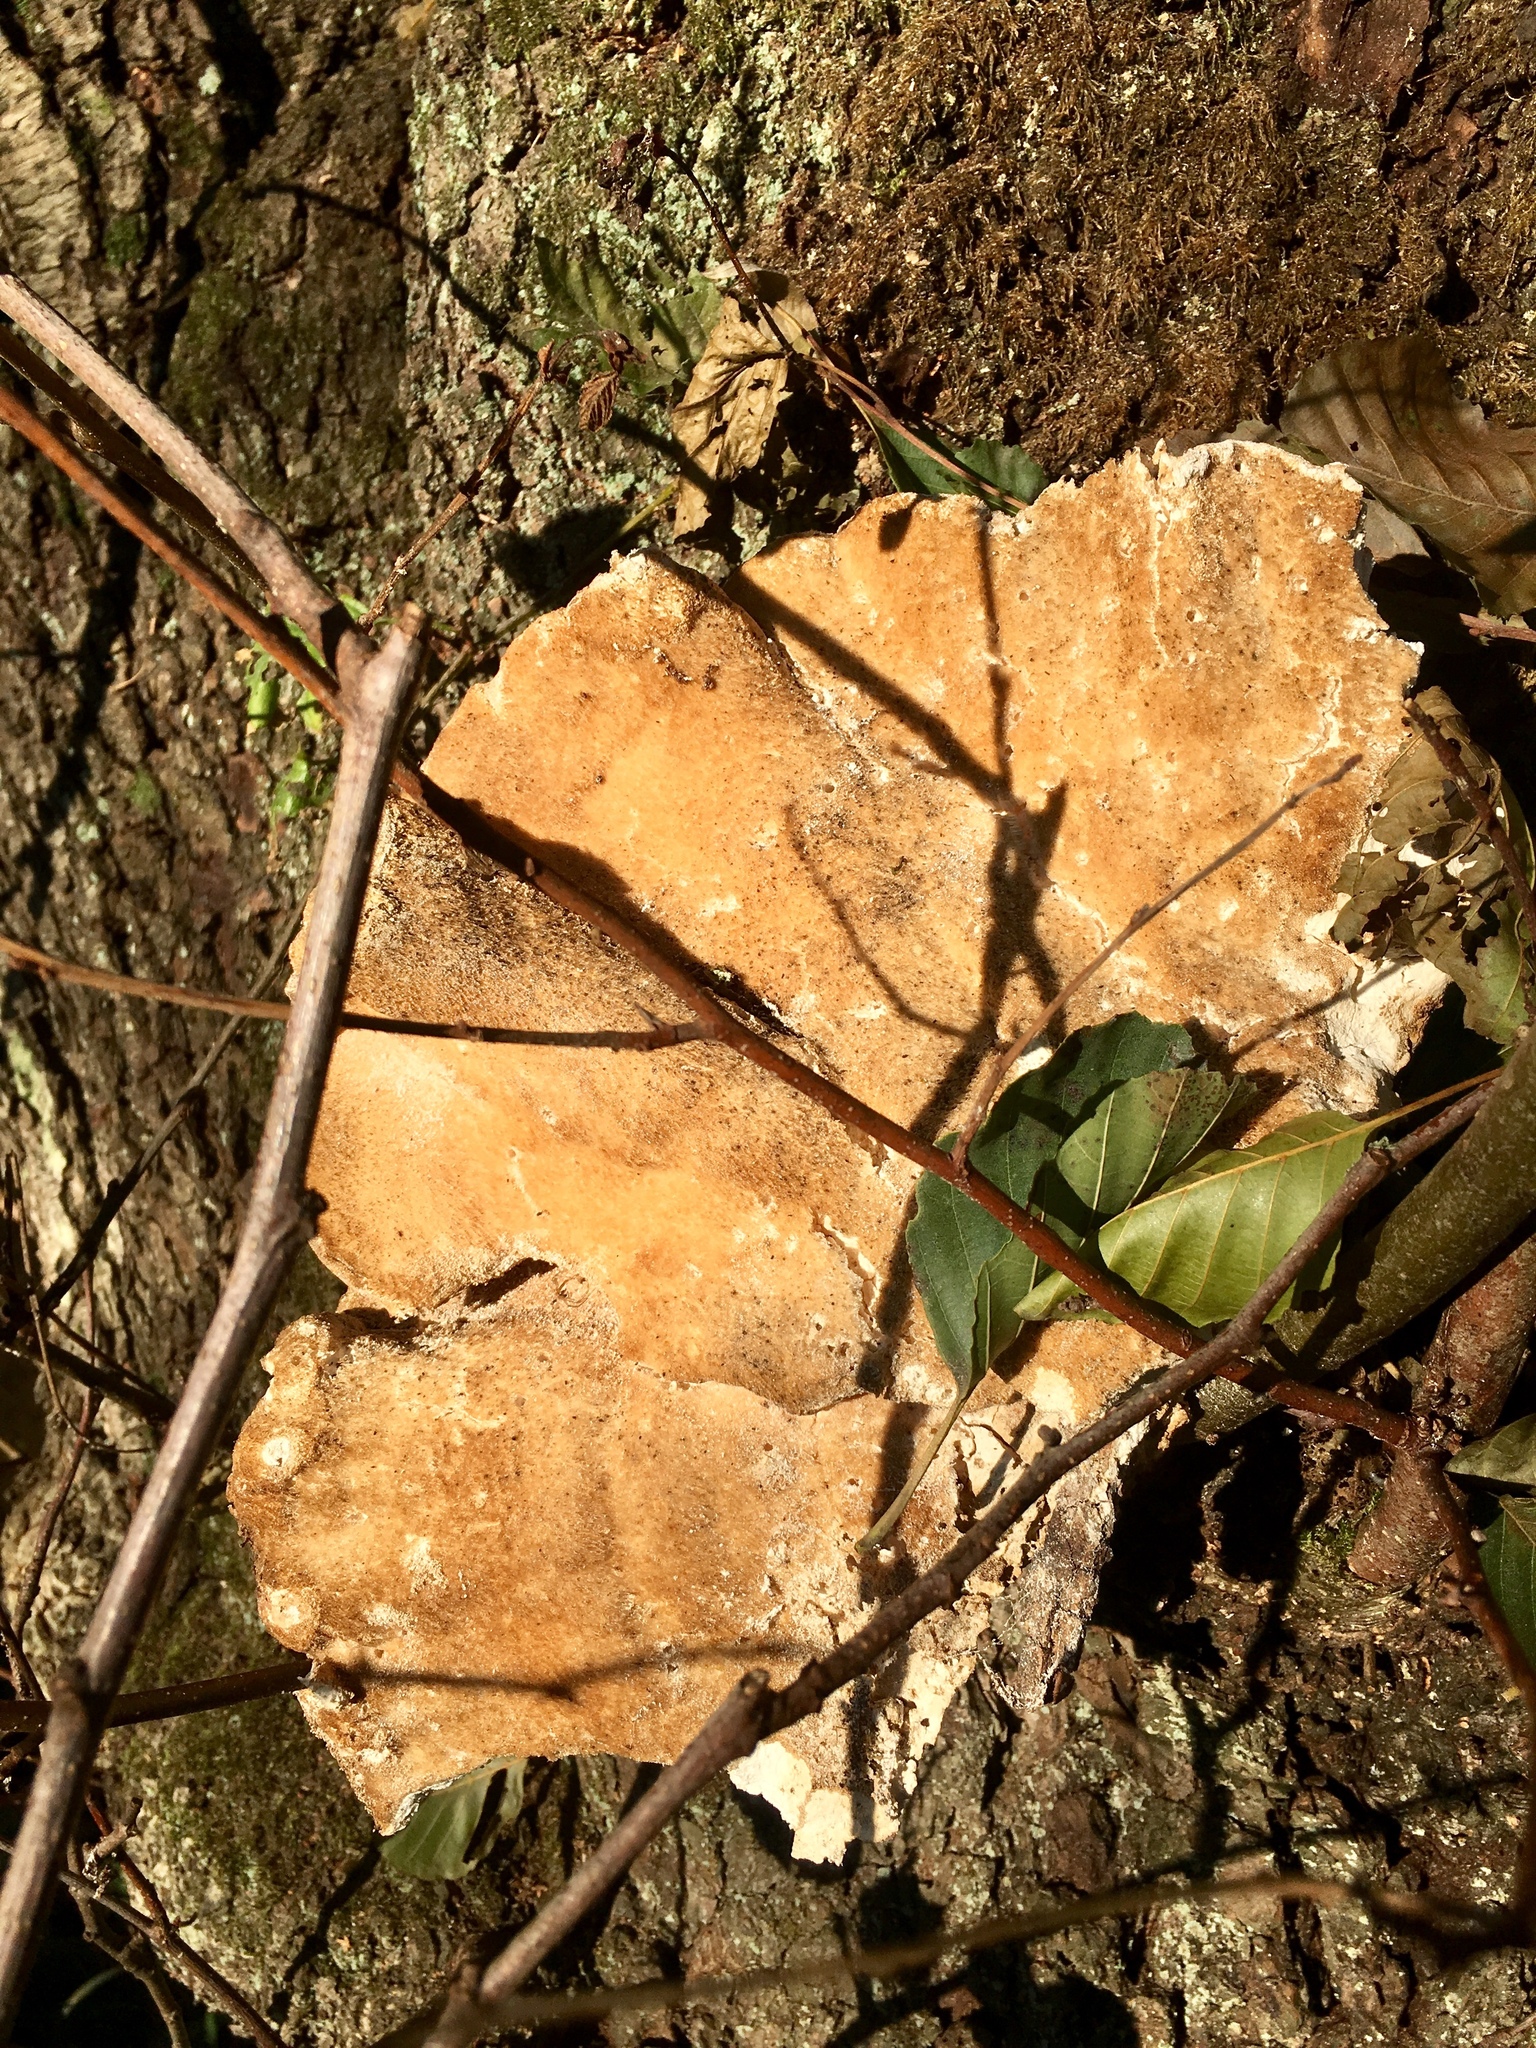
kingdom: Fungi
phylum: Basidiomycota
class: Agaricomycetes
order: Polyporales
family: Laetiporaceae
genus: Laetiporus
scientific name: Laetiporus sulphureus
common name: Chicken of the woods
